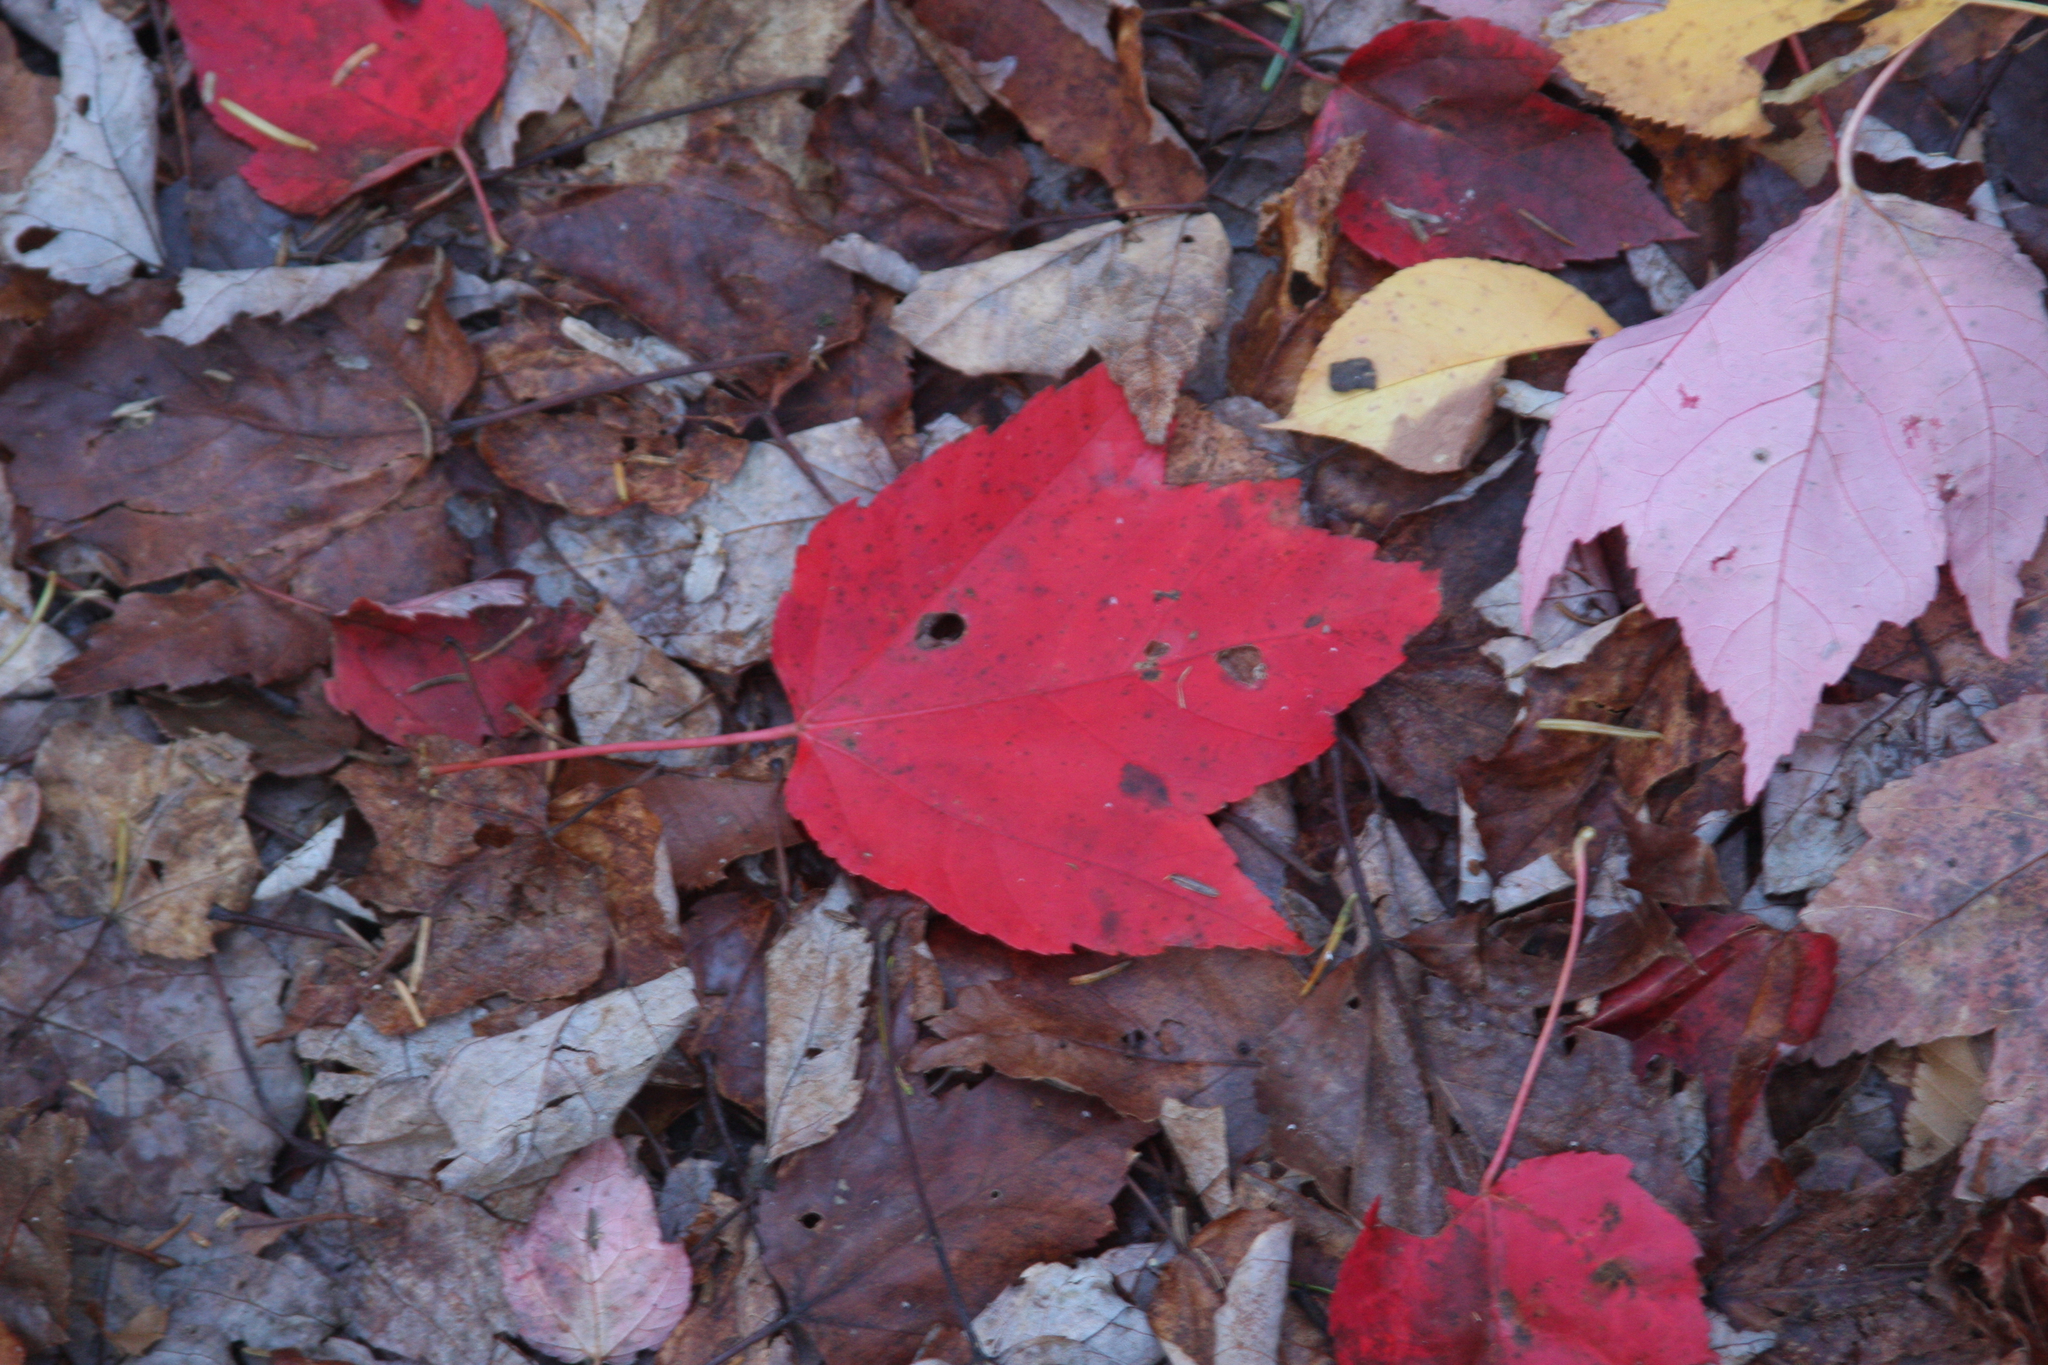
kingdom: Plantae
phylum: Tracheophyta
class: Magnoliopsida
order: Sapindales
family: Sapindaceae
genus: Acer
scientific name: Acer rubrum
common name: Red maple
